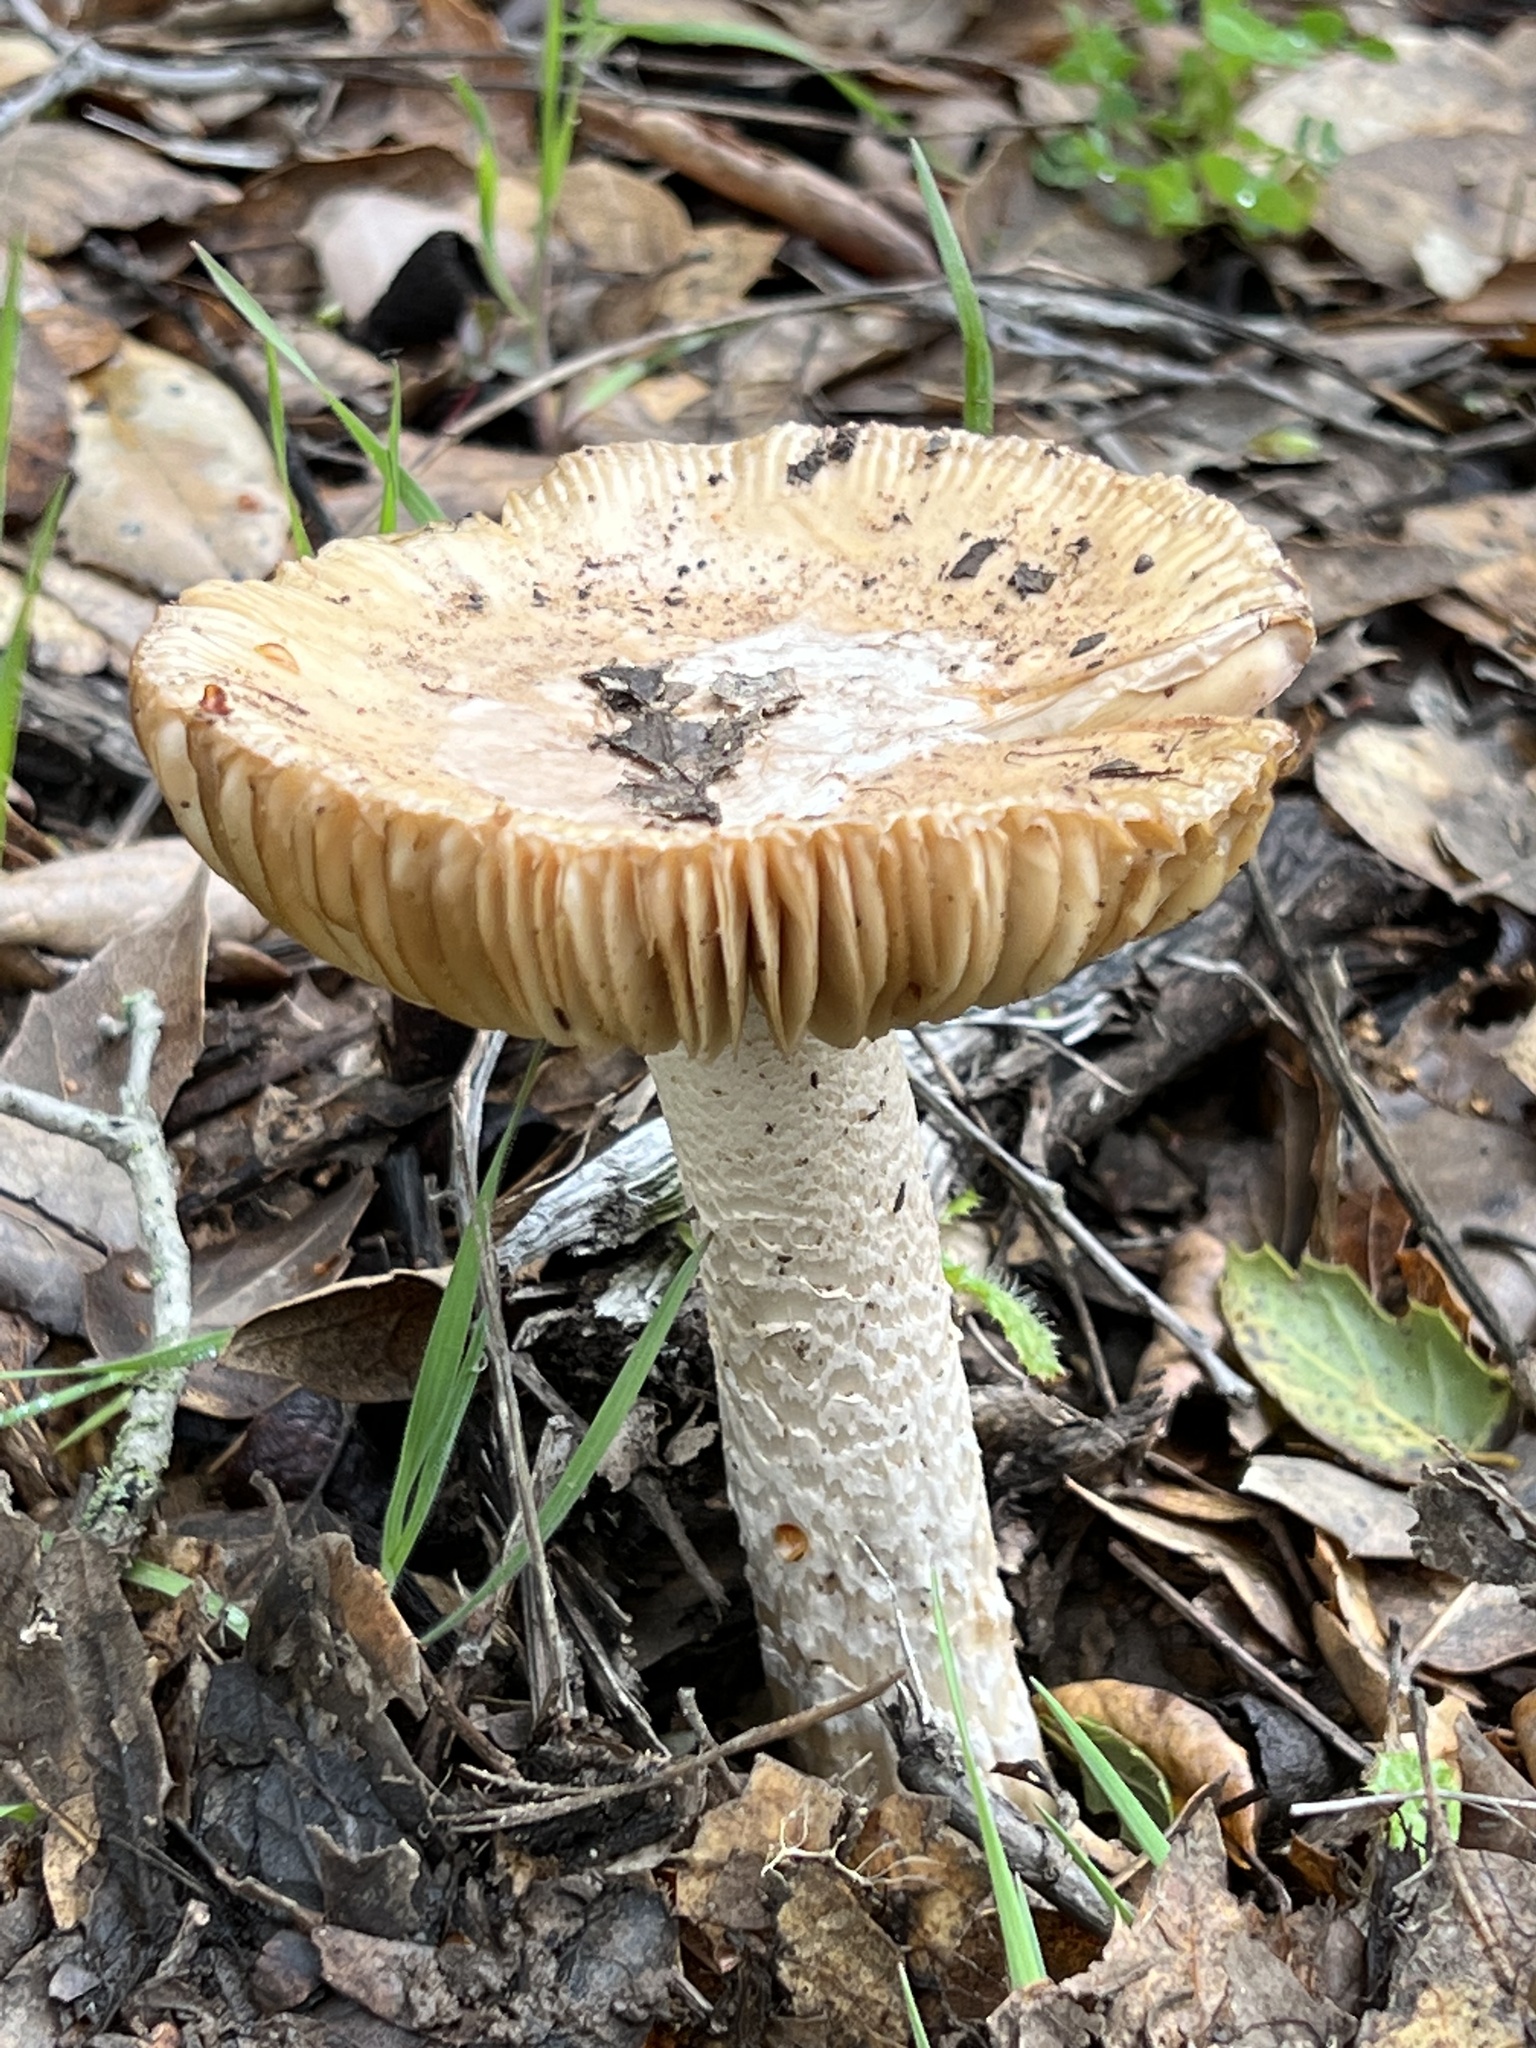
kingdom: Fungi
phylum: Basidiomycota
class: Agaricomycetes
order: Agaricales
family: Amanitaceae
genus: Amanita
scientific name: Amanita velosa
